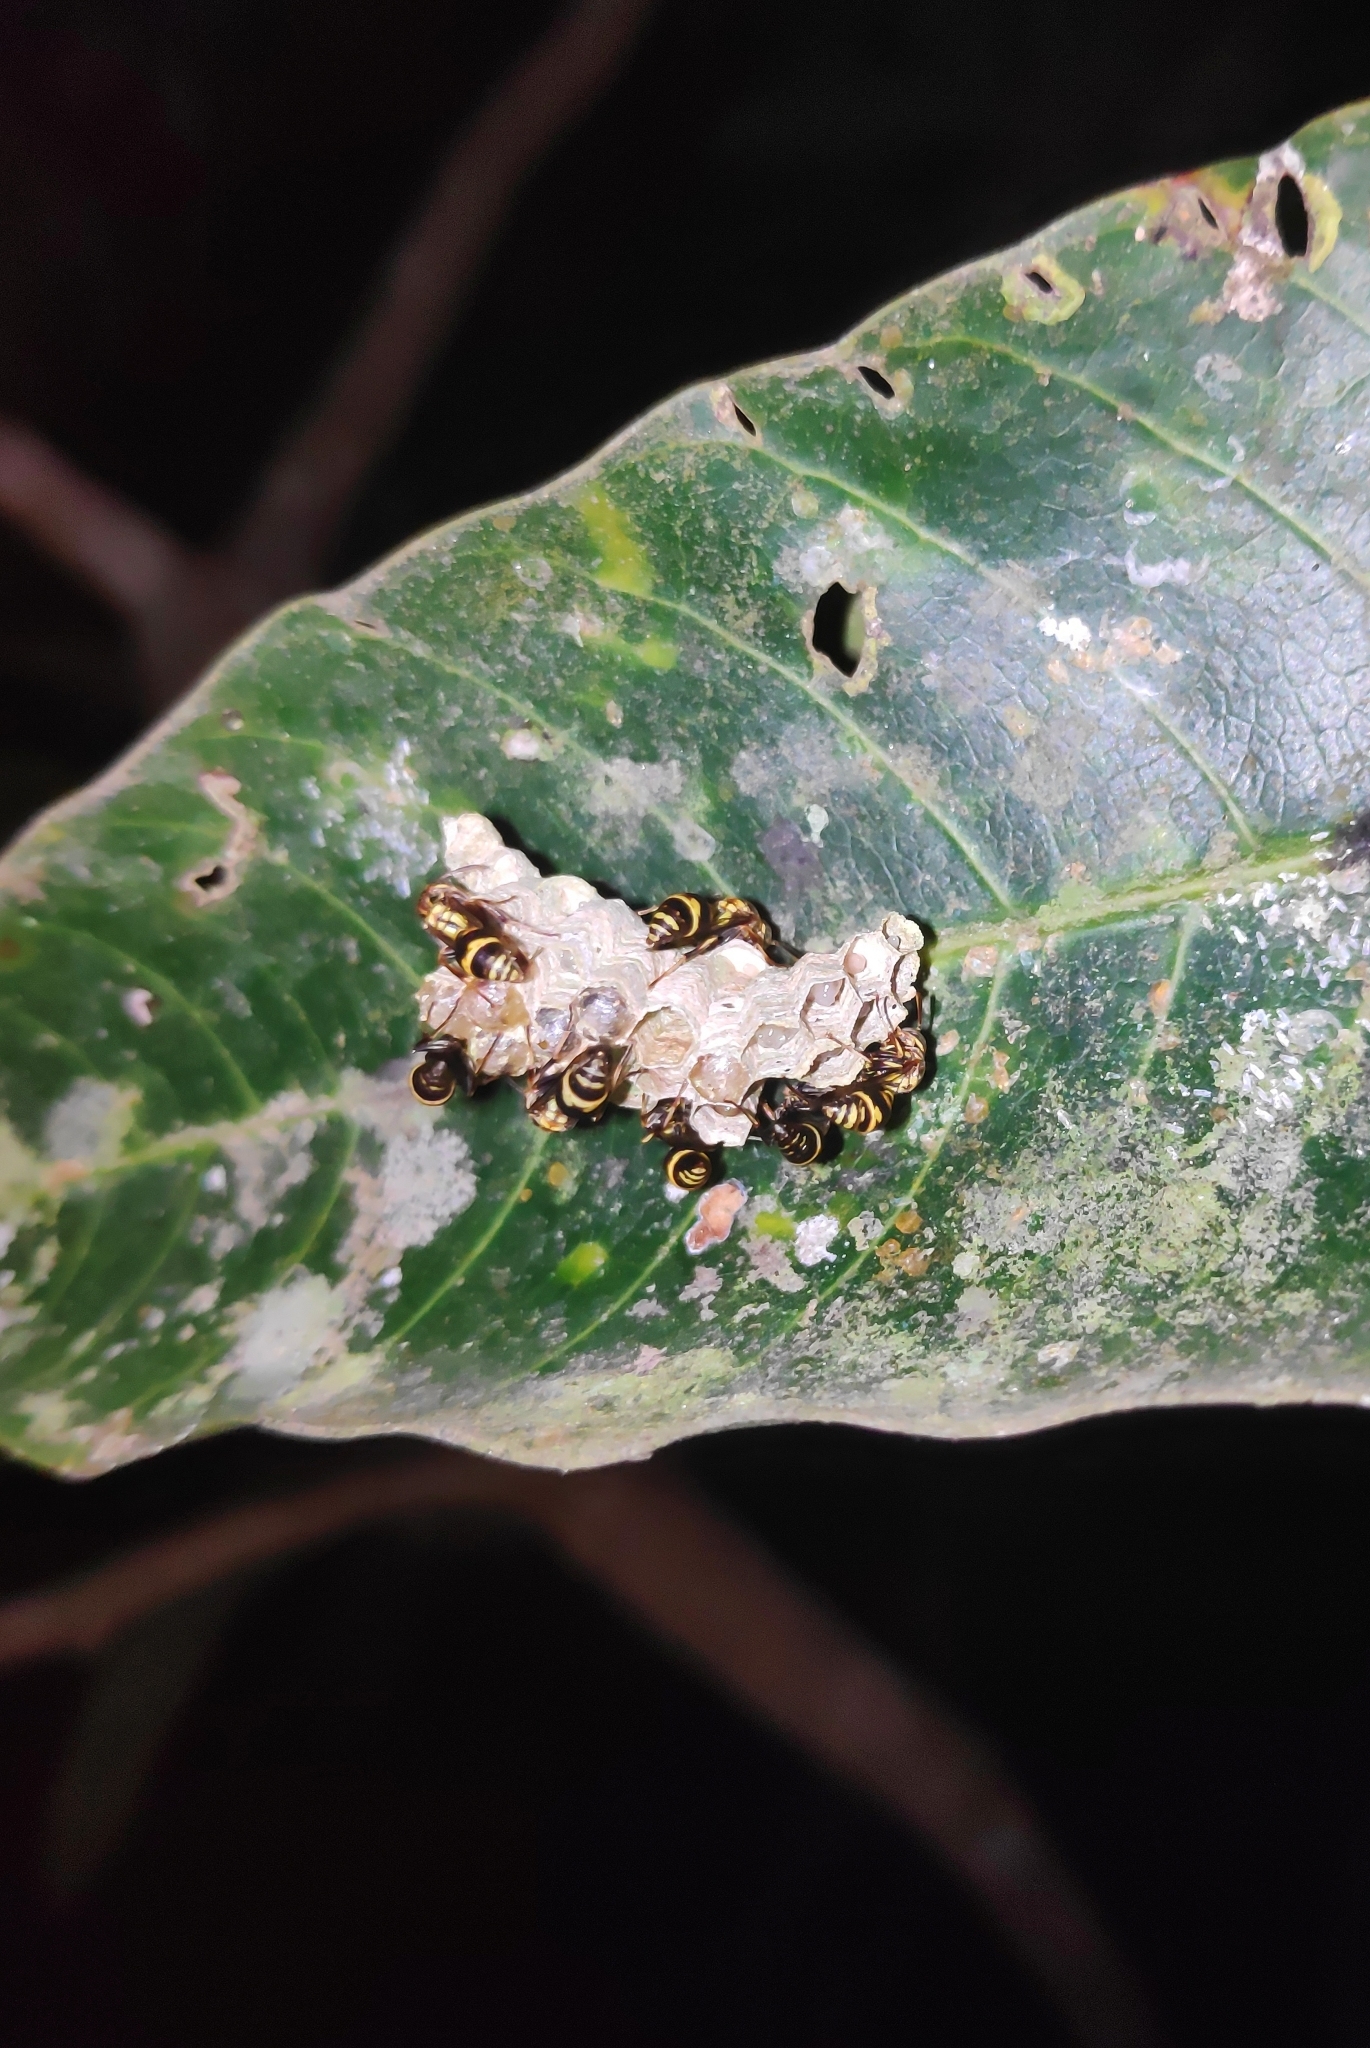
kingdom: Animalia
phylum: Arthropoda
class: Insecta
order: Hymenoptera
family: Vespidae
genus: Ropalidia
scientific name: Ropalidia cyathiformis
